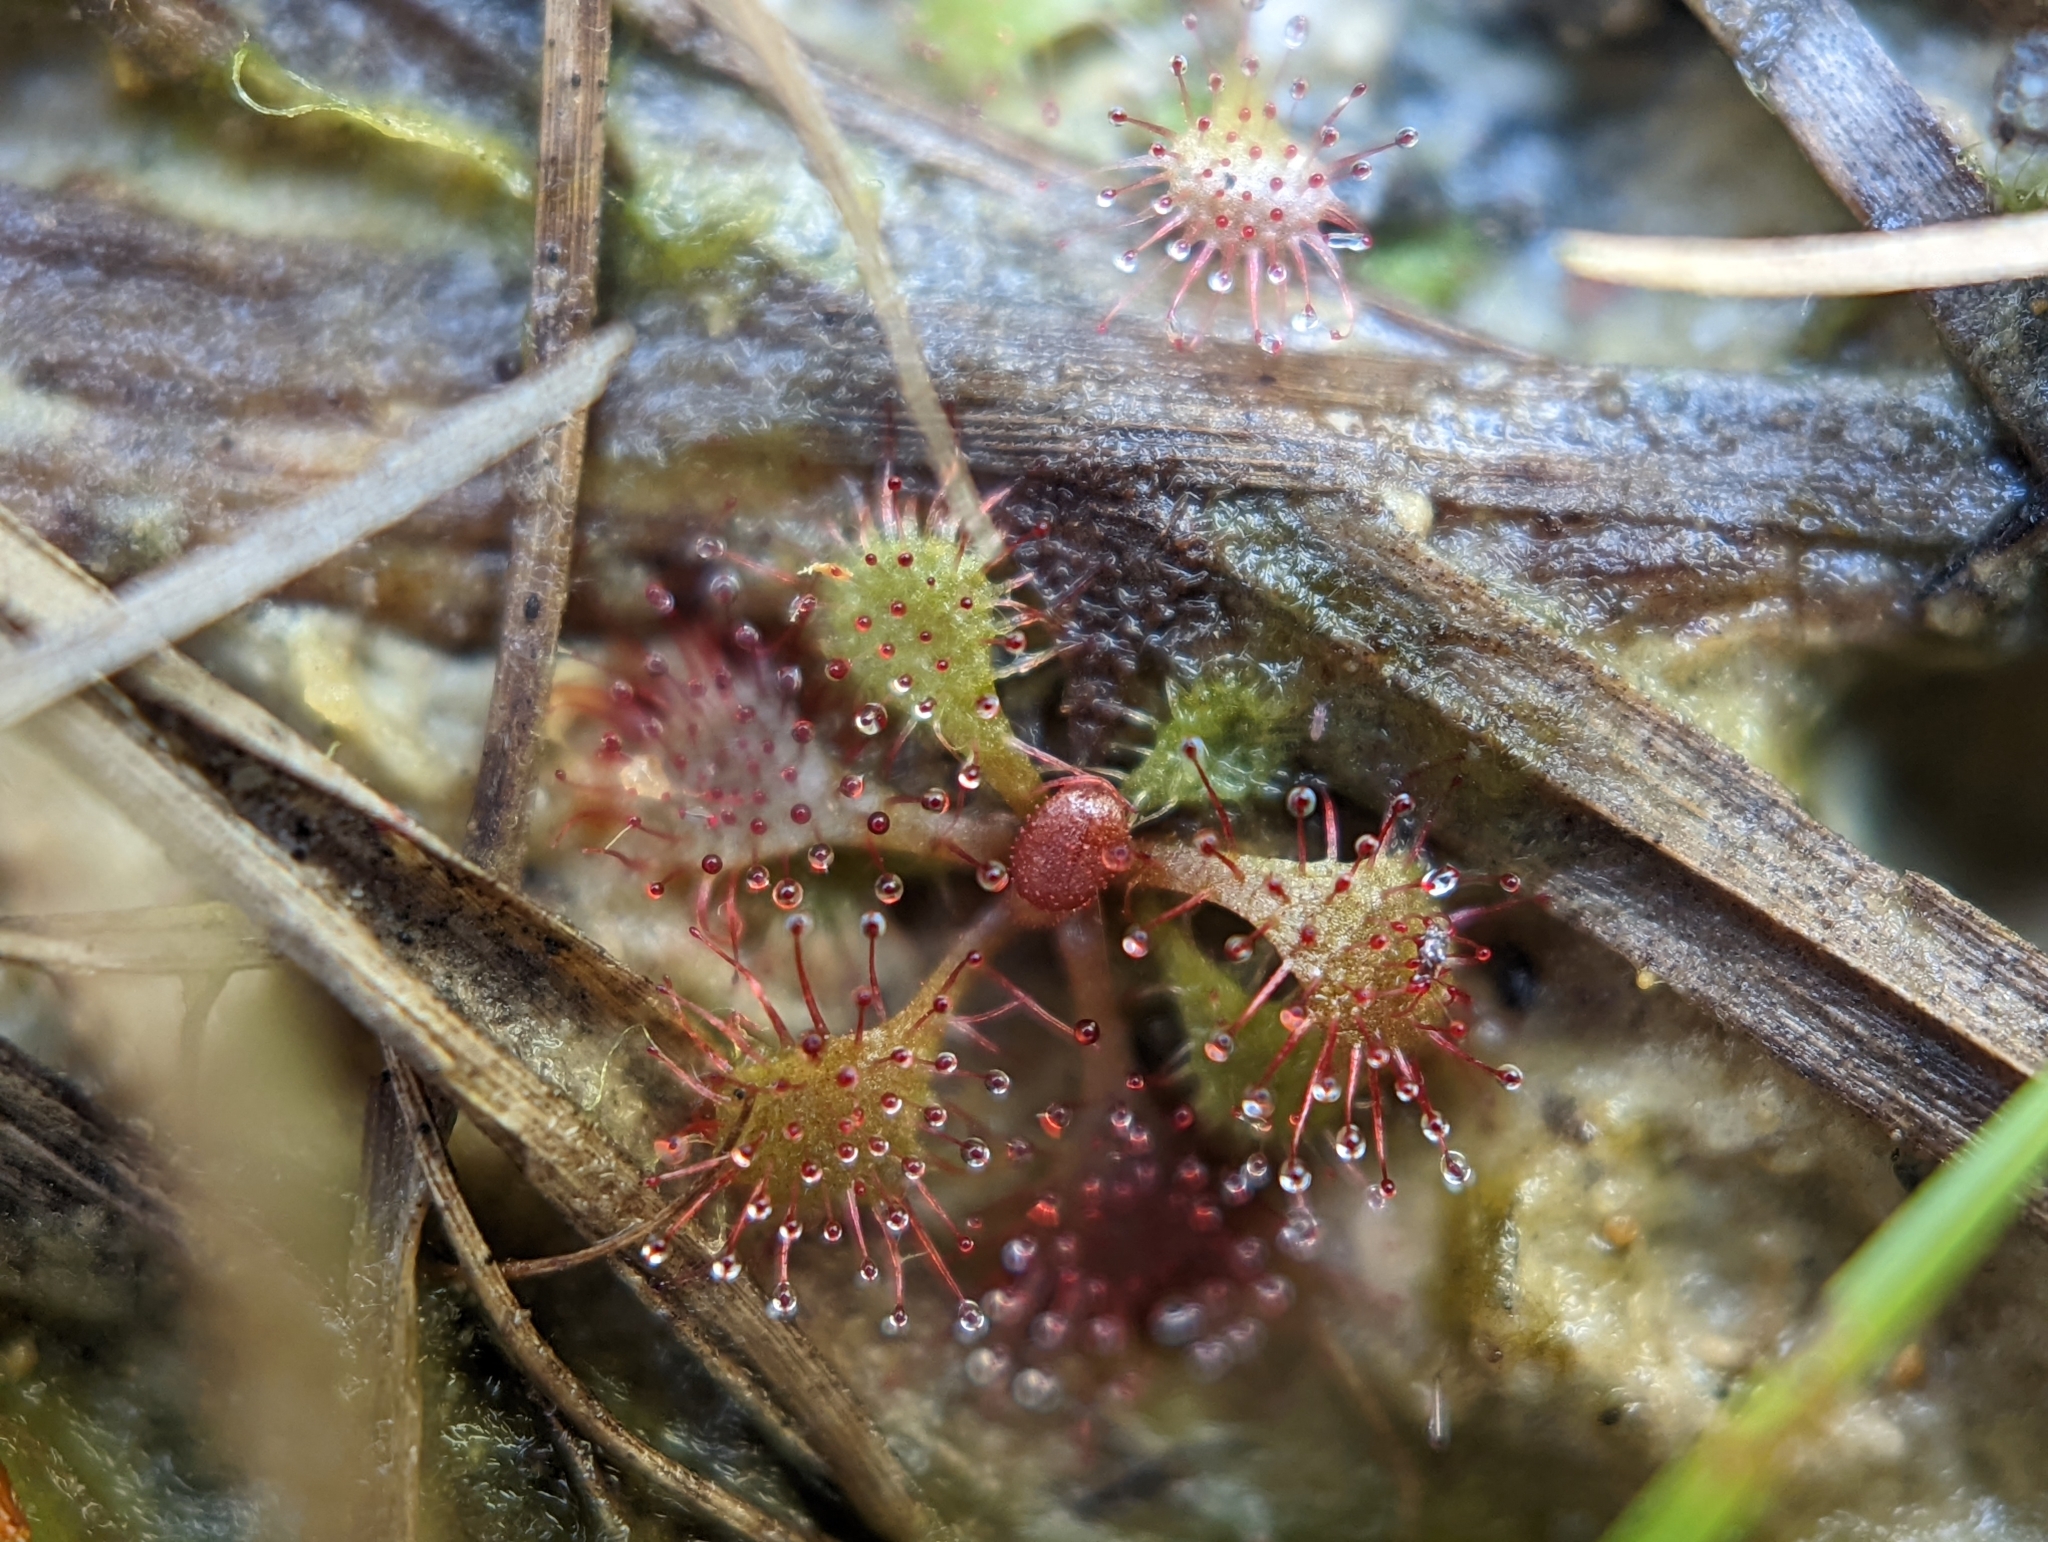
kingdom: Plantae
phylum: Tracheophyta
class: Magnoliopsida
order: Caryophyllales
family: Droseraceae
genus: Drosera
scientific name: Drosera brevifolia
